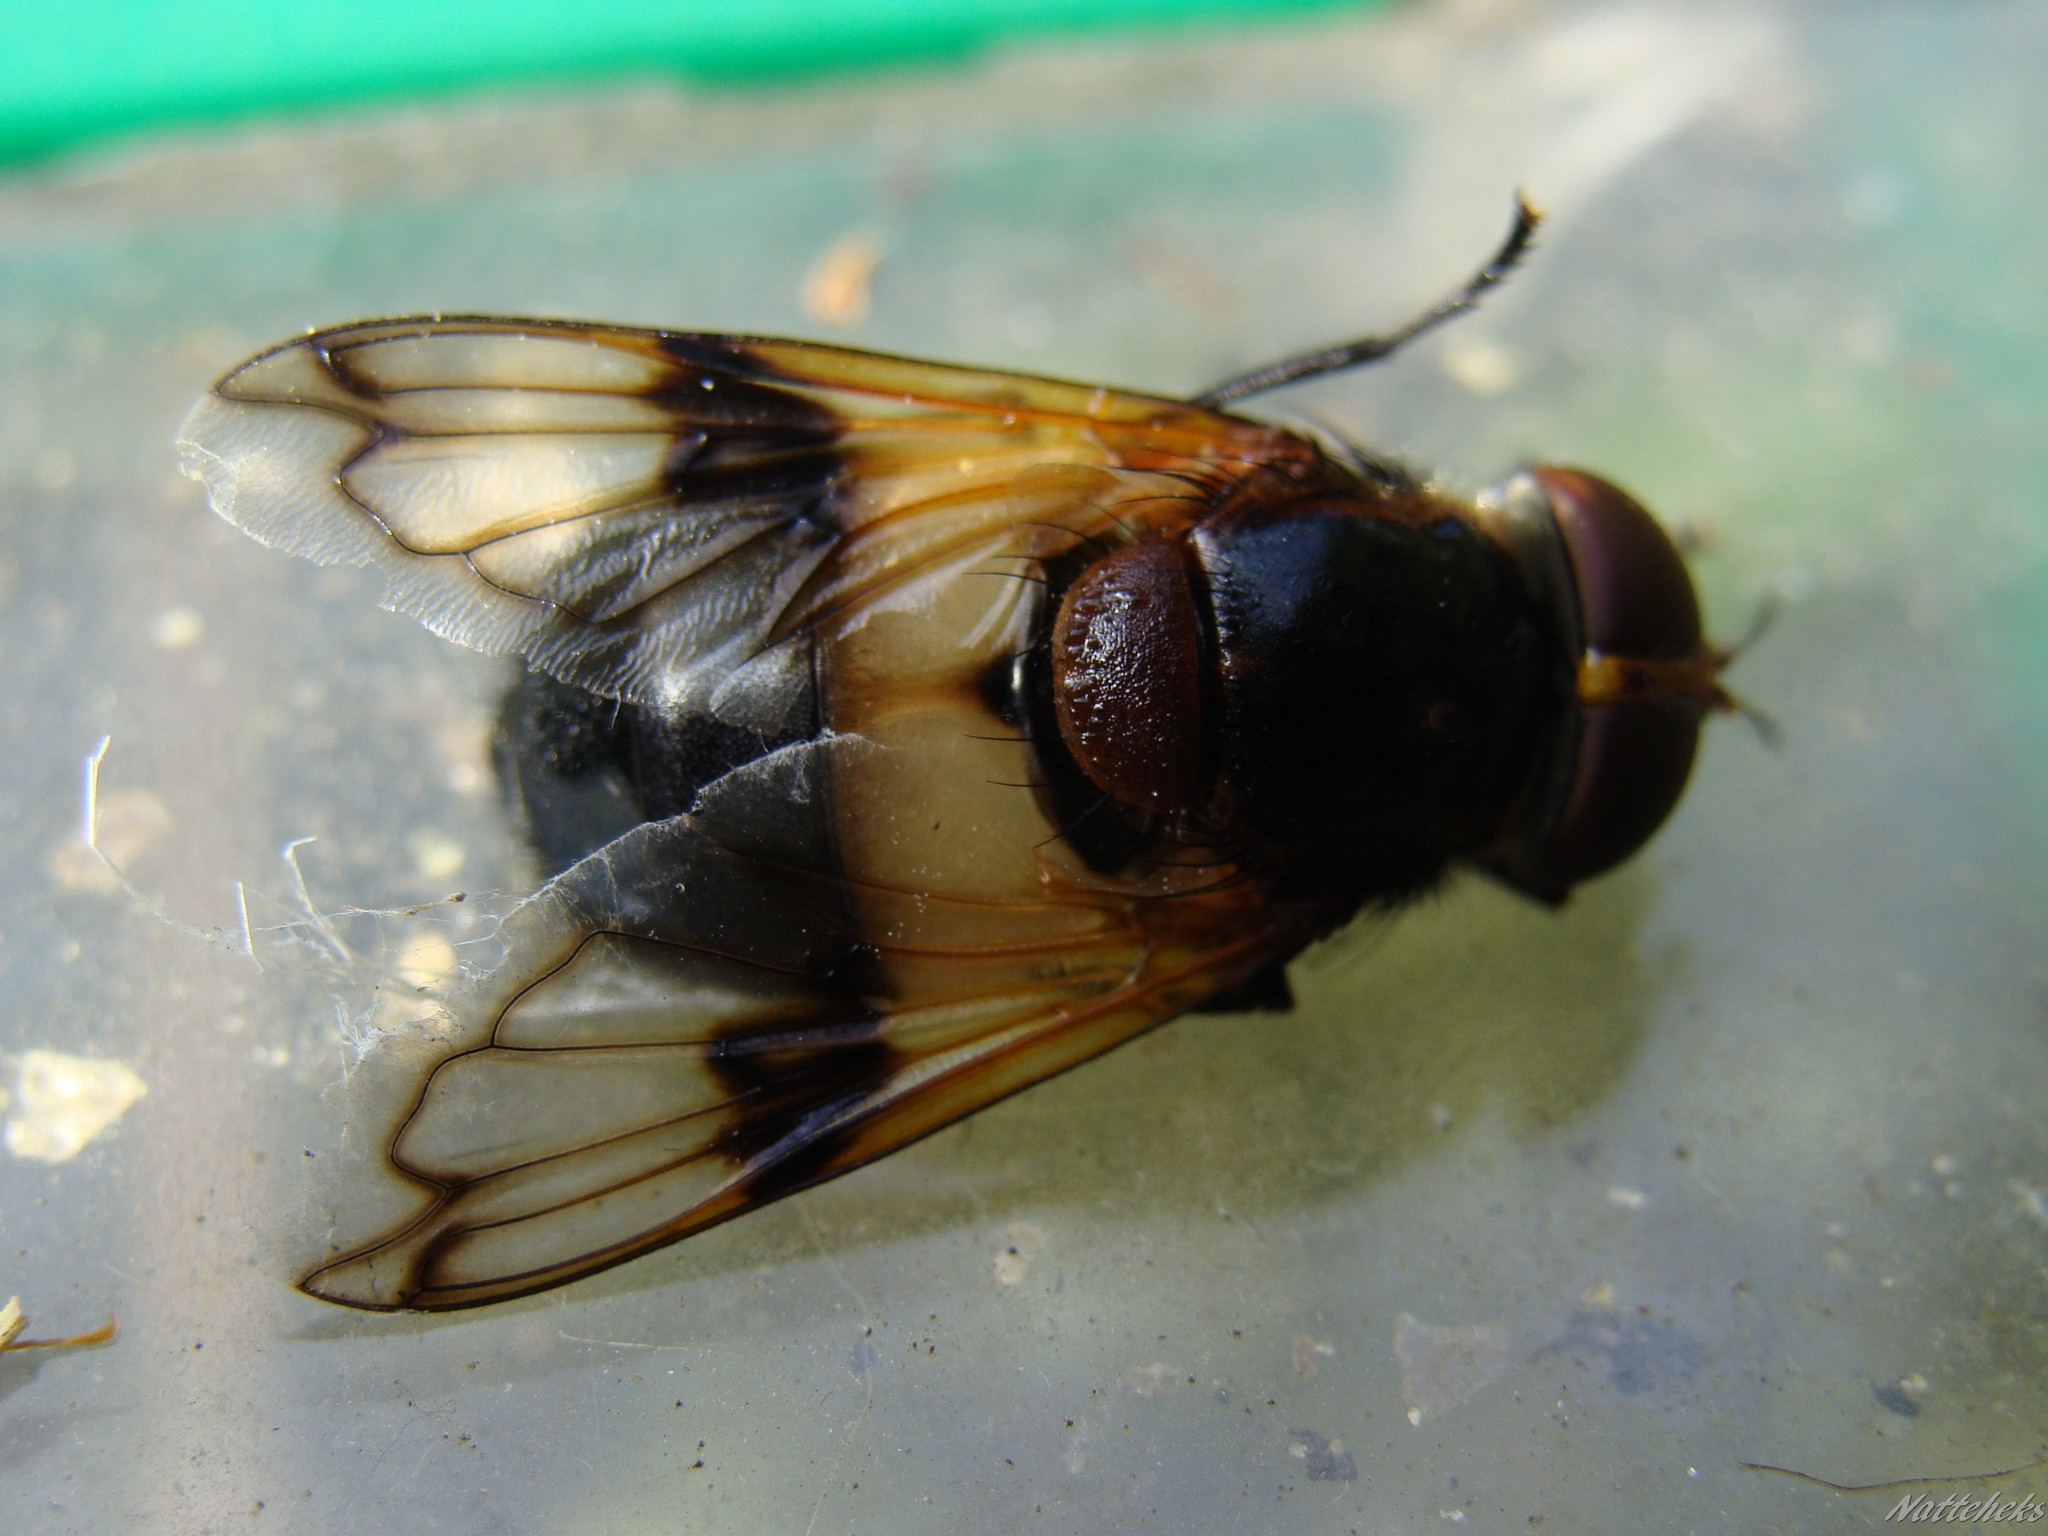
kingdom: Animalia
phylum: Arthropoda
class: Insecta
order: Diptera
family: Syrphidae
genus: Volucella
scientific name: Volucella pellucens
